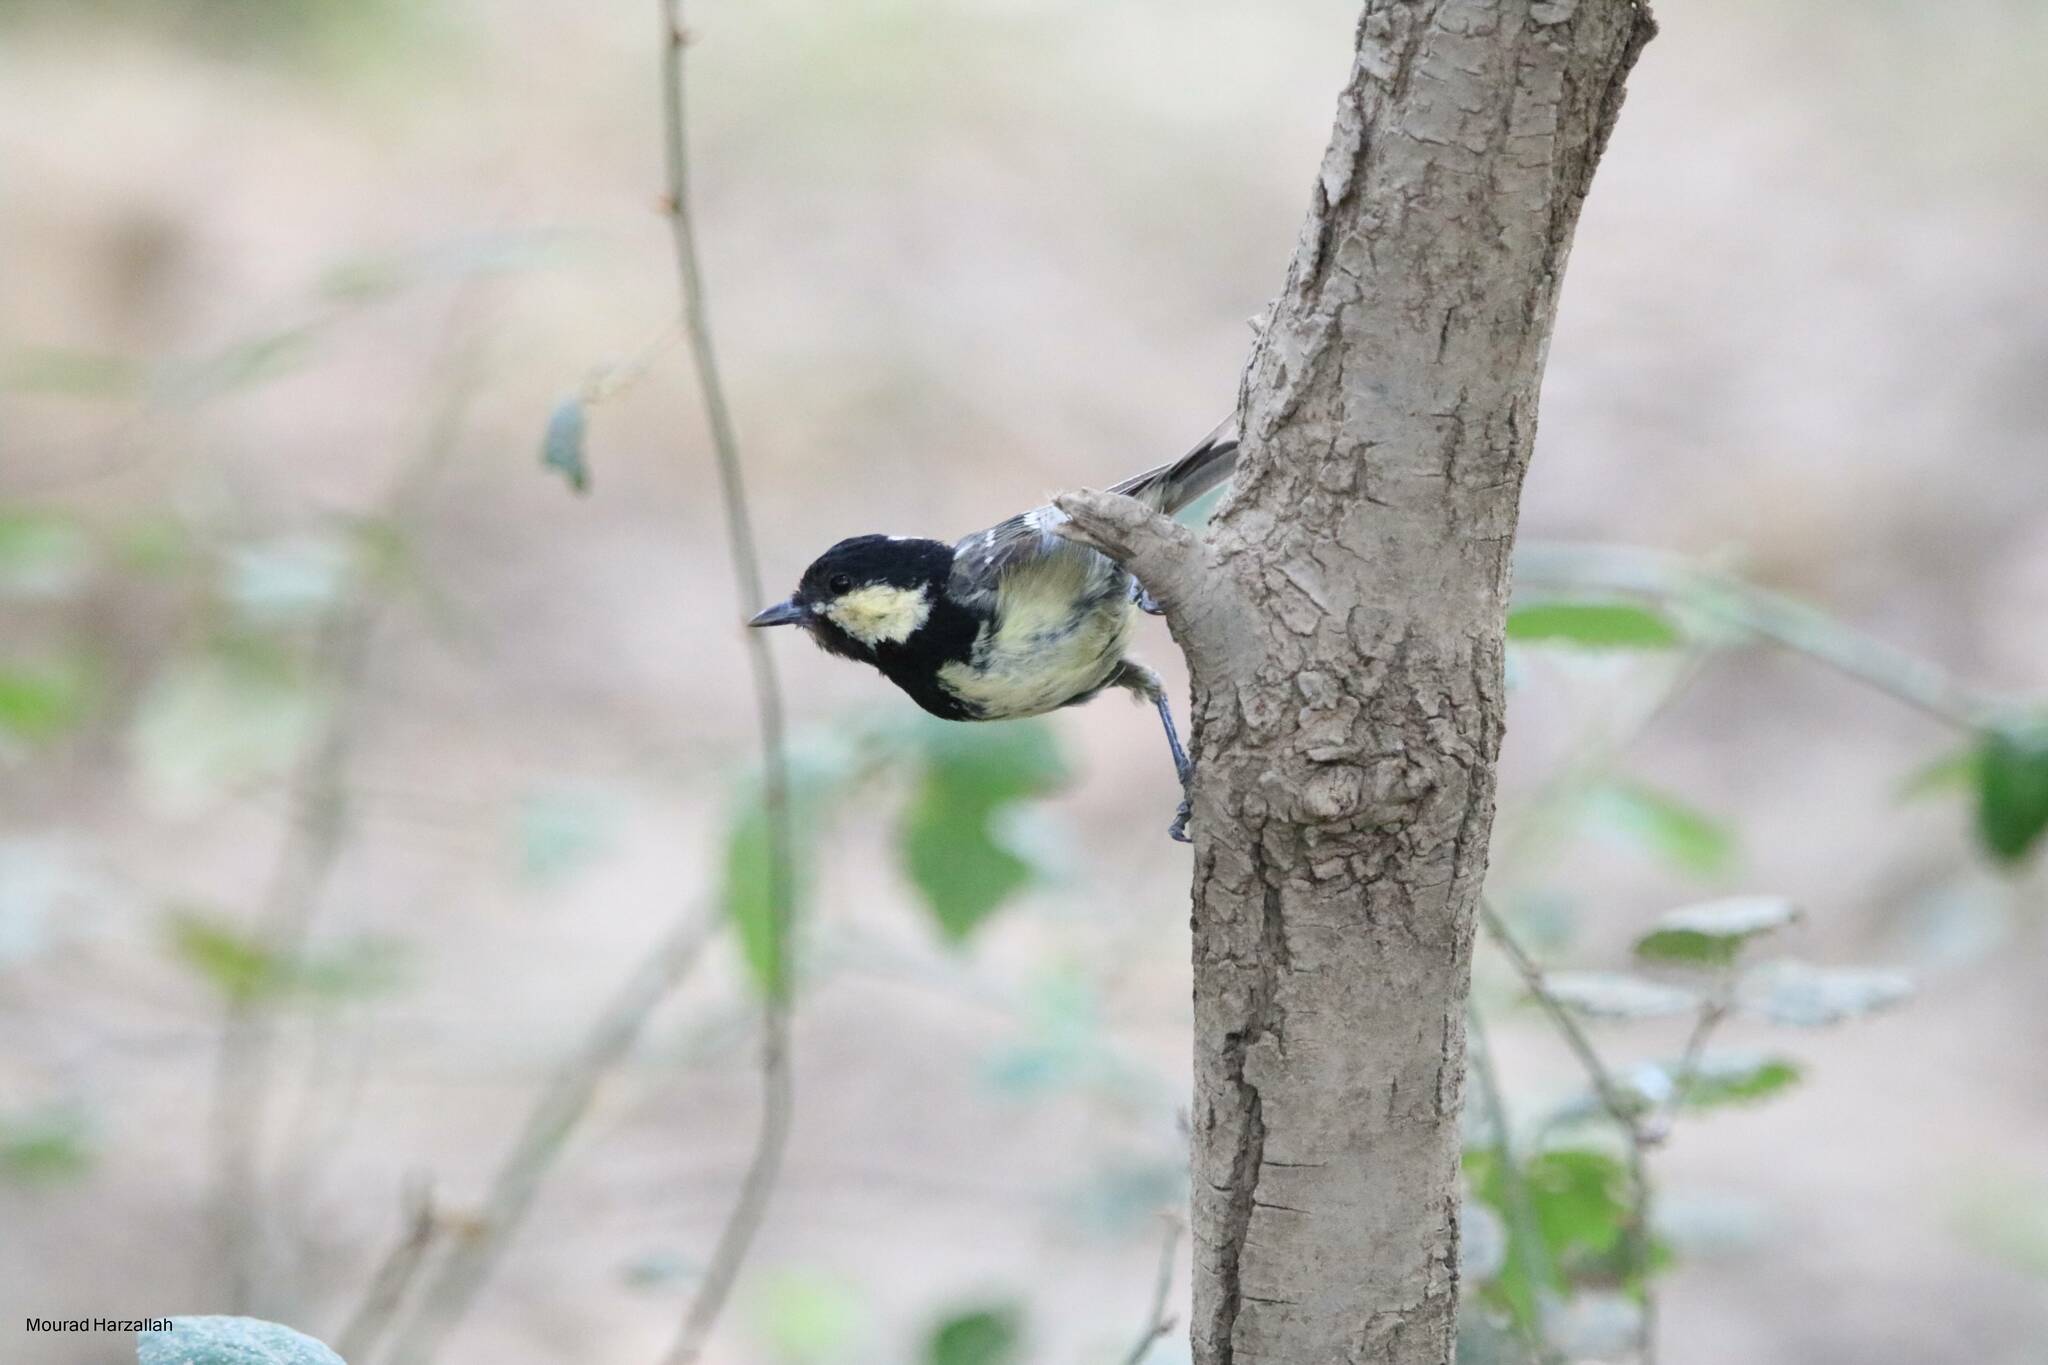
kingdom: Animalia
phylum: Chordata
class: Aves
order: Passeriformes
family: Paridae
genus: Periparus
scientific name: Periparus ater
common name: Coal tit
